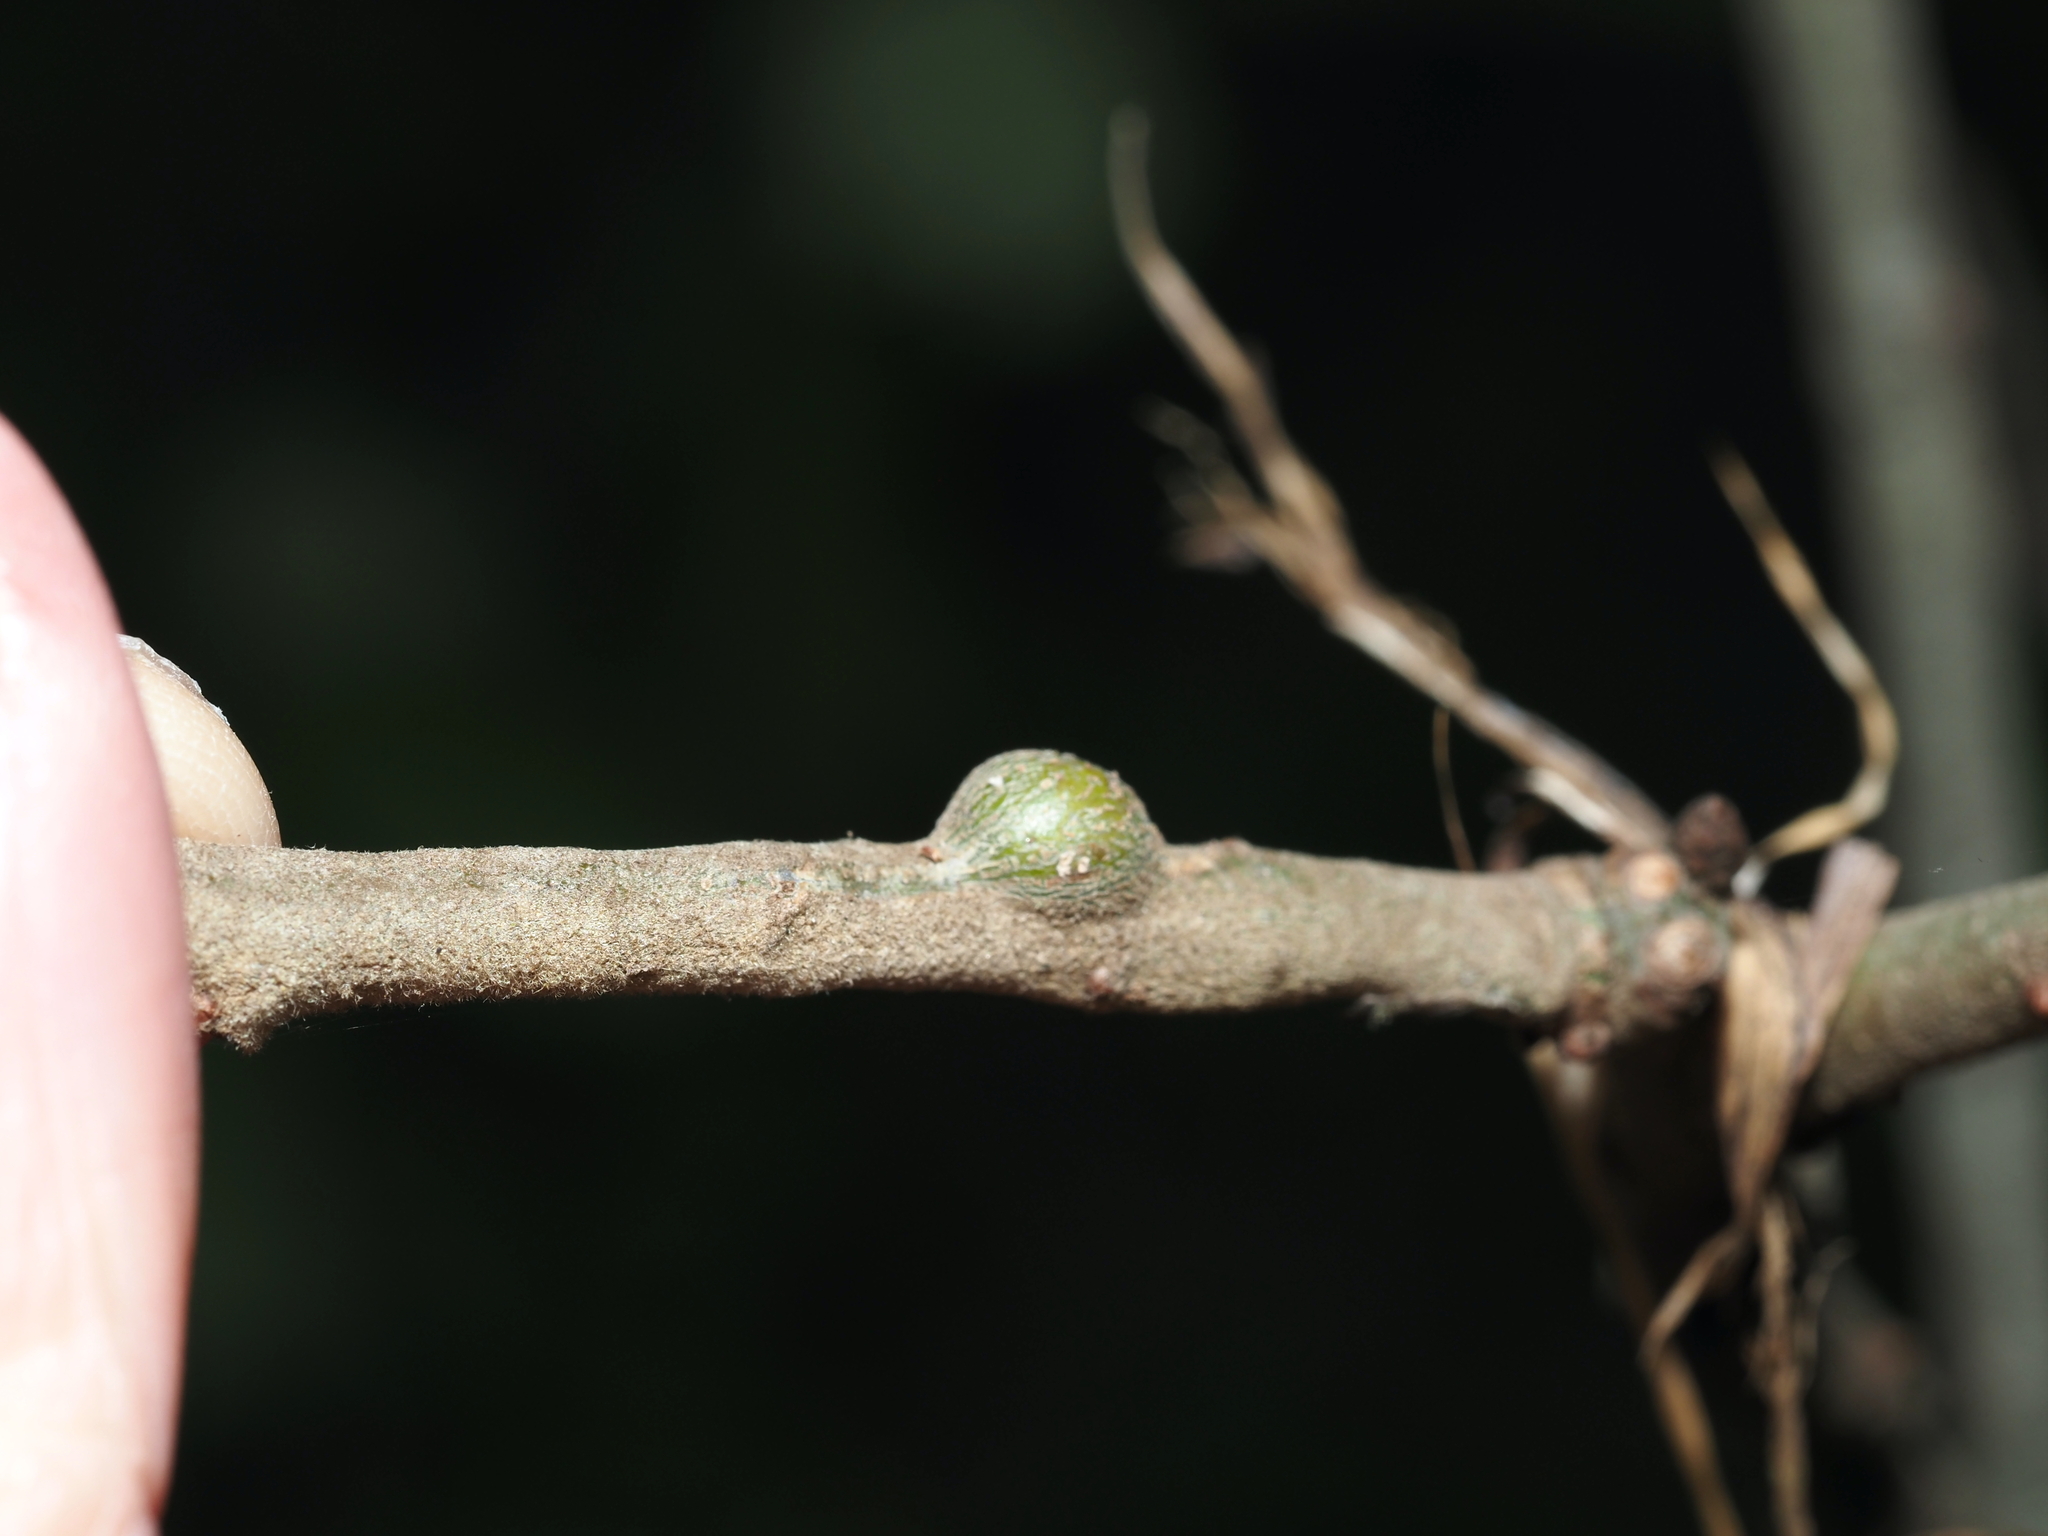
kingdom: Animalia
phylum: Arthropoda
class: Insecta
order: Hymenoptera
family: Cynipidae
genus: Zapatella
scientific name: Zapatella quercusmedullae
